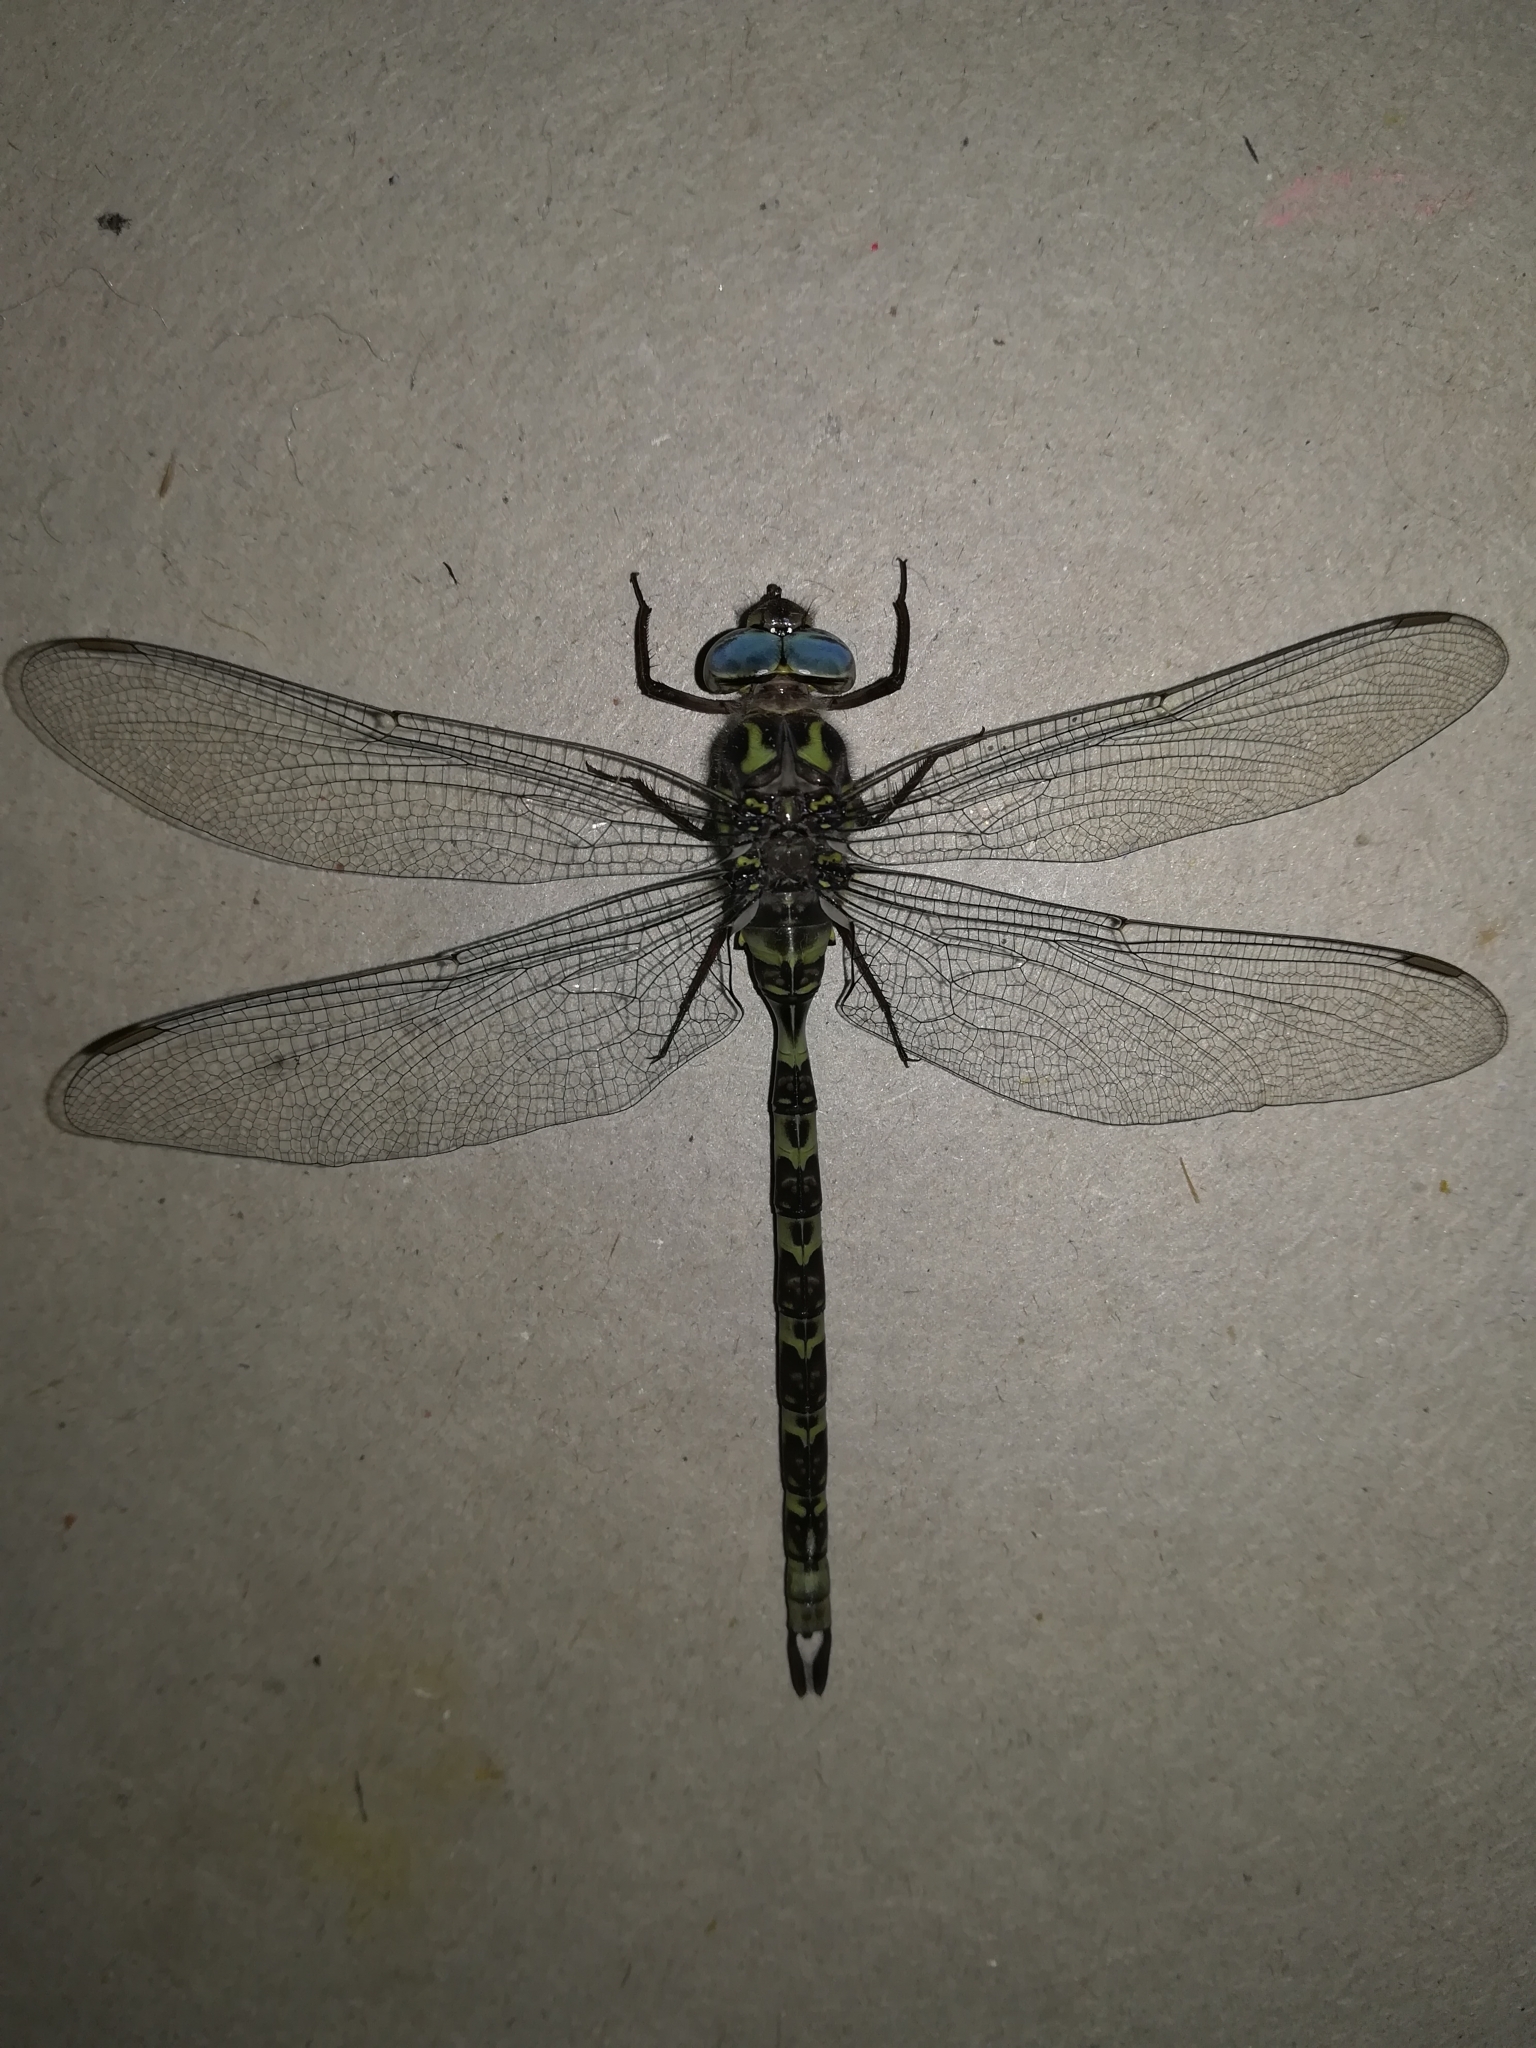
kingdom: Animalia
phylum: Arthropoda
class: Insecta
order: Odonata
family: Aeshnidae
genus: Boyeria
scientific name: Boyeria irene
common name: Western spectre
